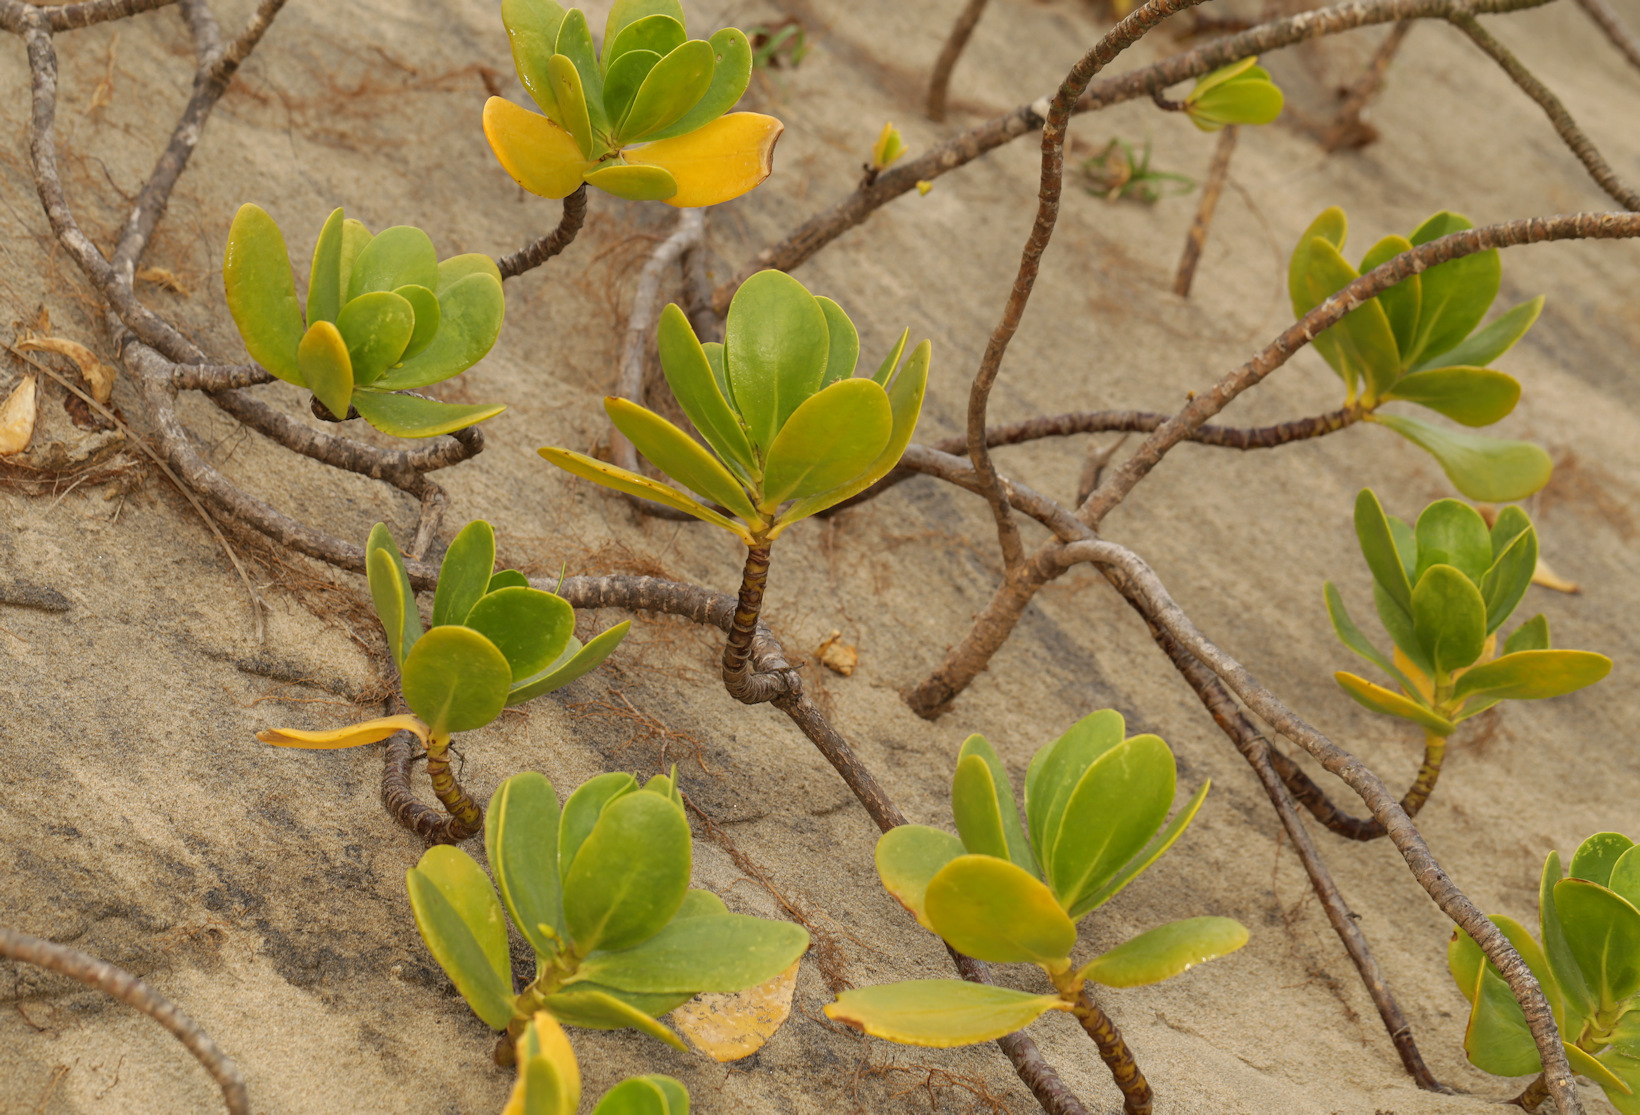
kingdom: Plantae
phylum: Tracheophyta
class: Magnoliopsida
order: Asterales
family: Goodeniaceae
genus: Scaevola
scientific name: Scaevola plumieri
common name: Gull feed
